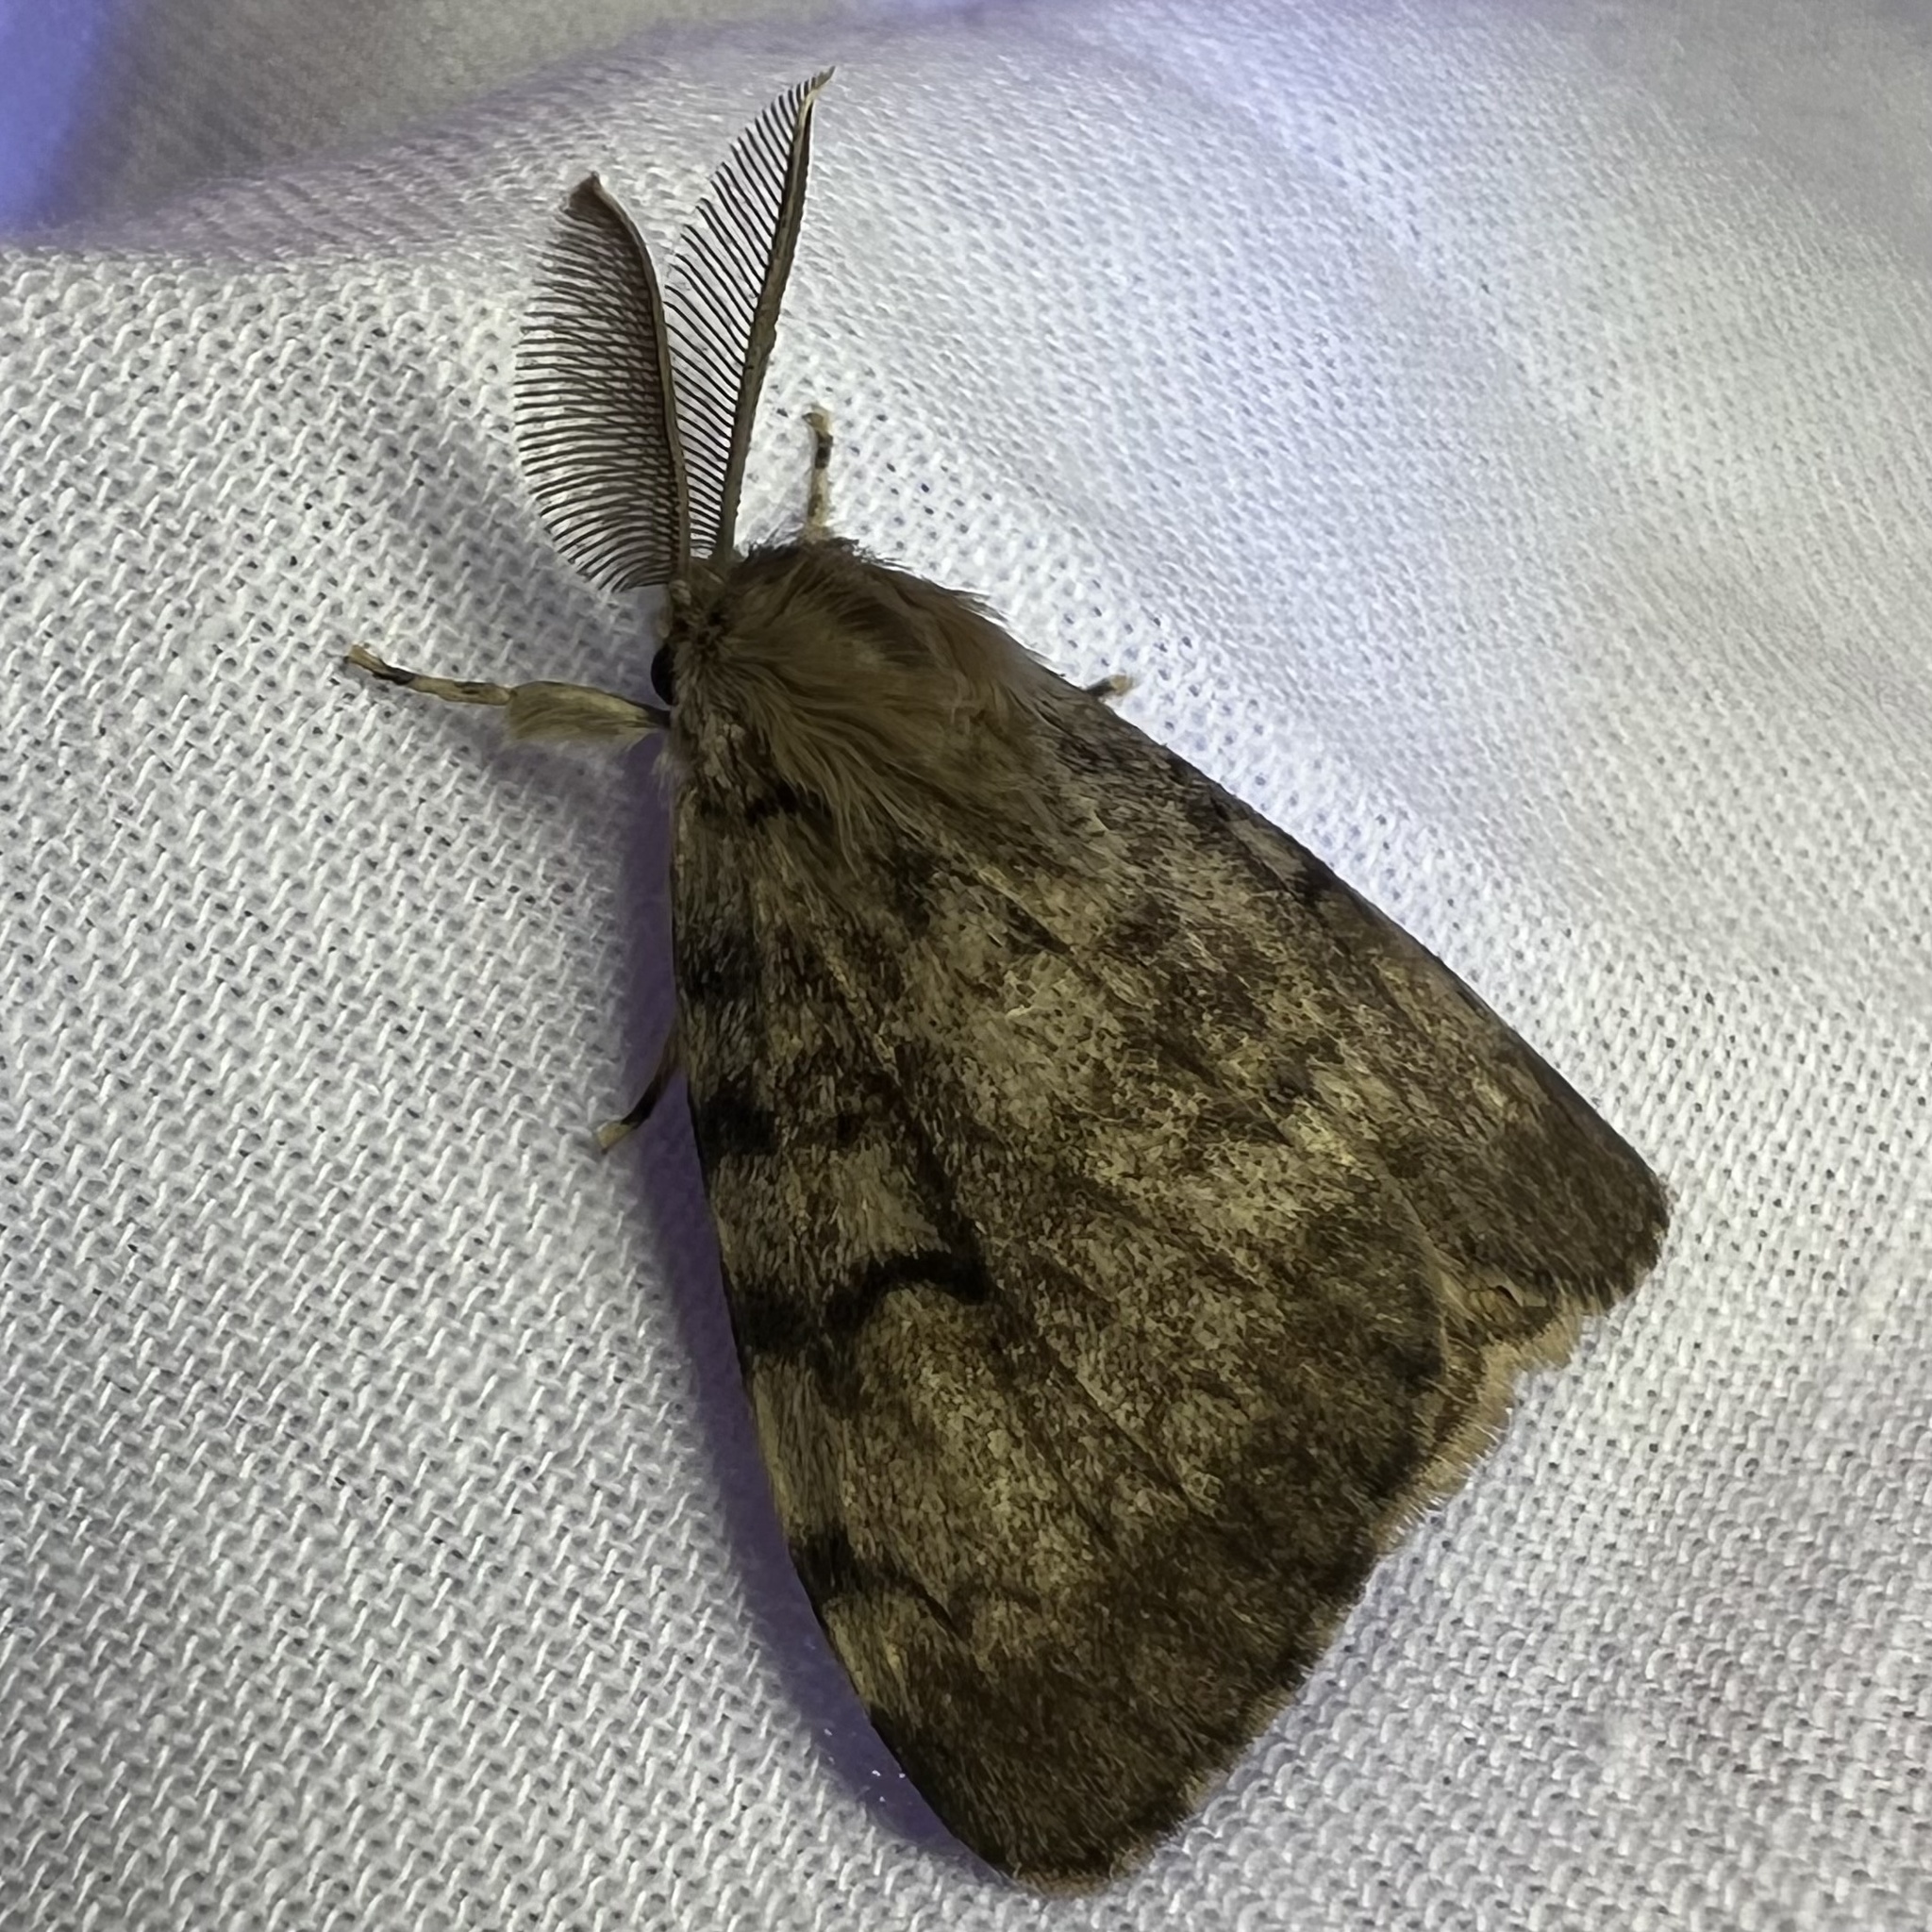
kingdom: Animalia
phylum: Arthropoda
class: Insecta
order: Lepidoptera
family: Erebidae
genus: Lymantria
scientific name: Lymantria dispar
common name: Gypsy moth
